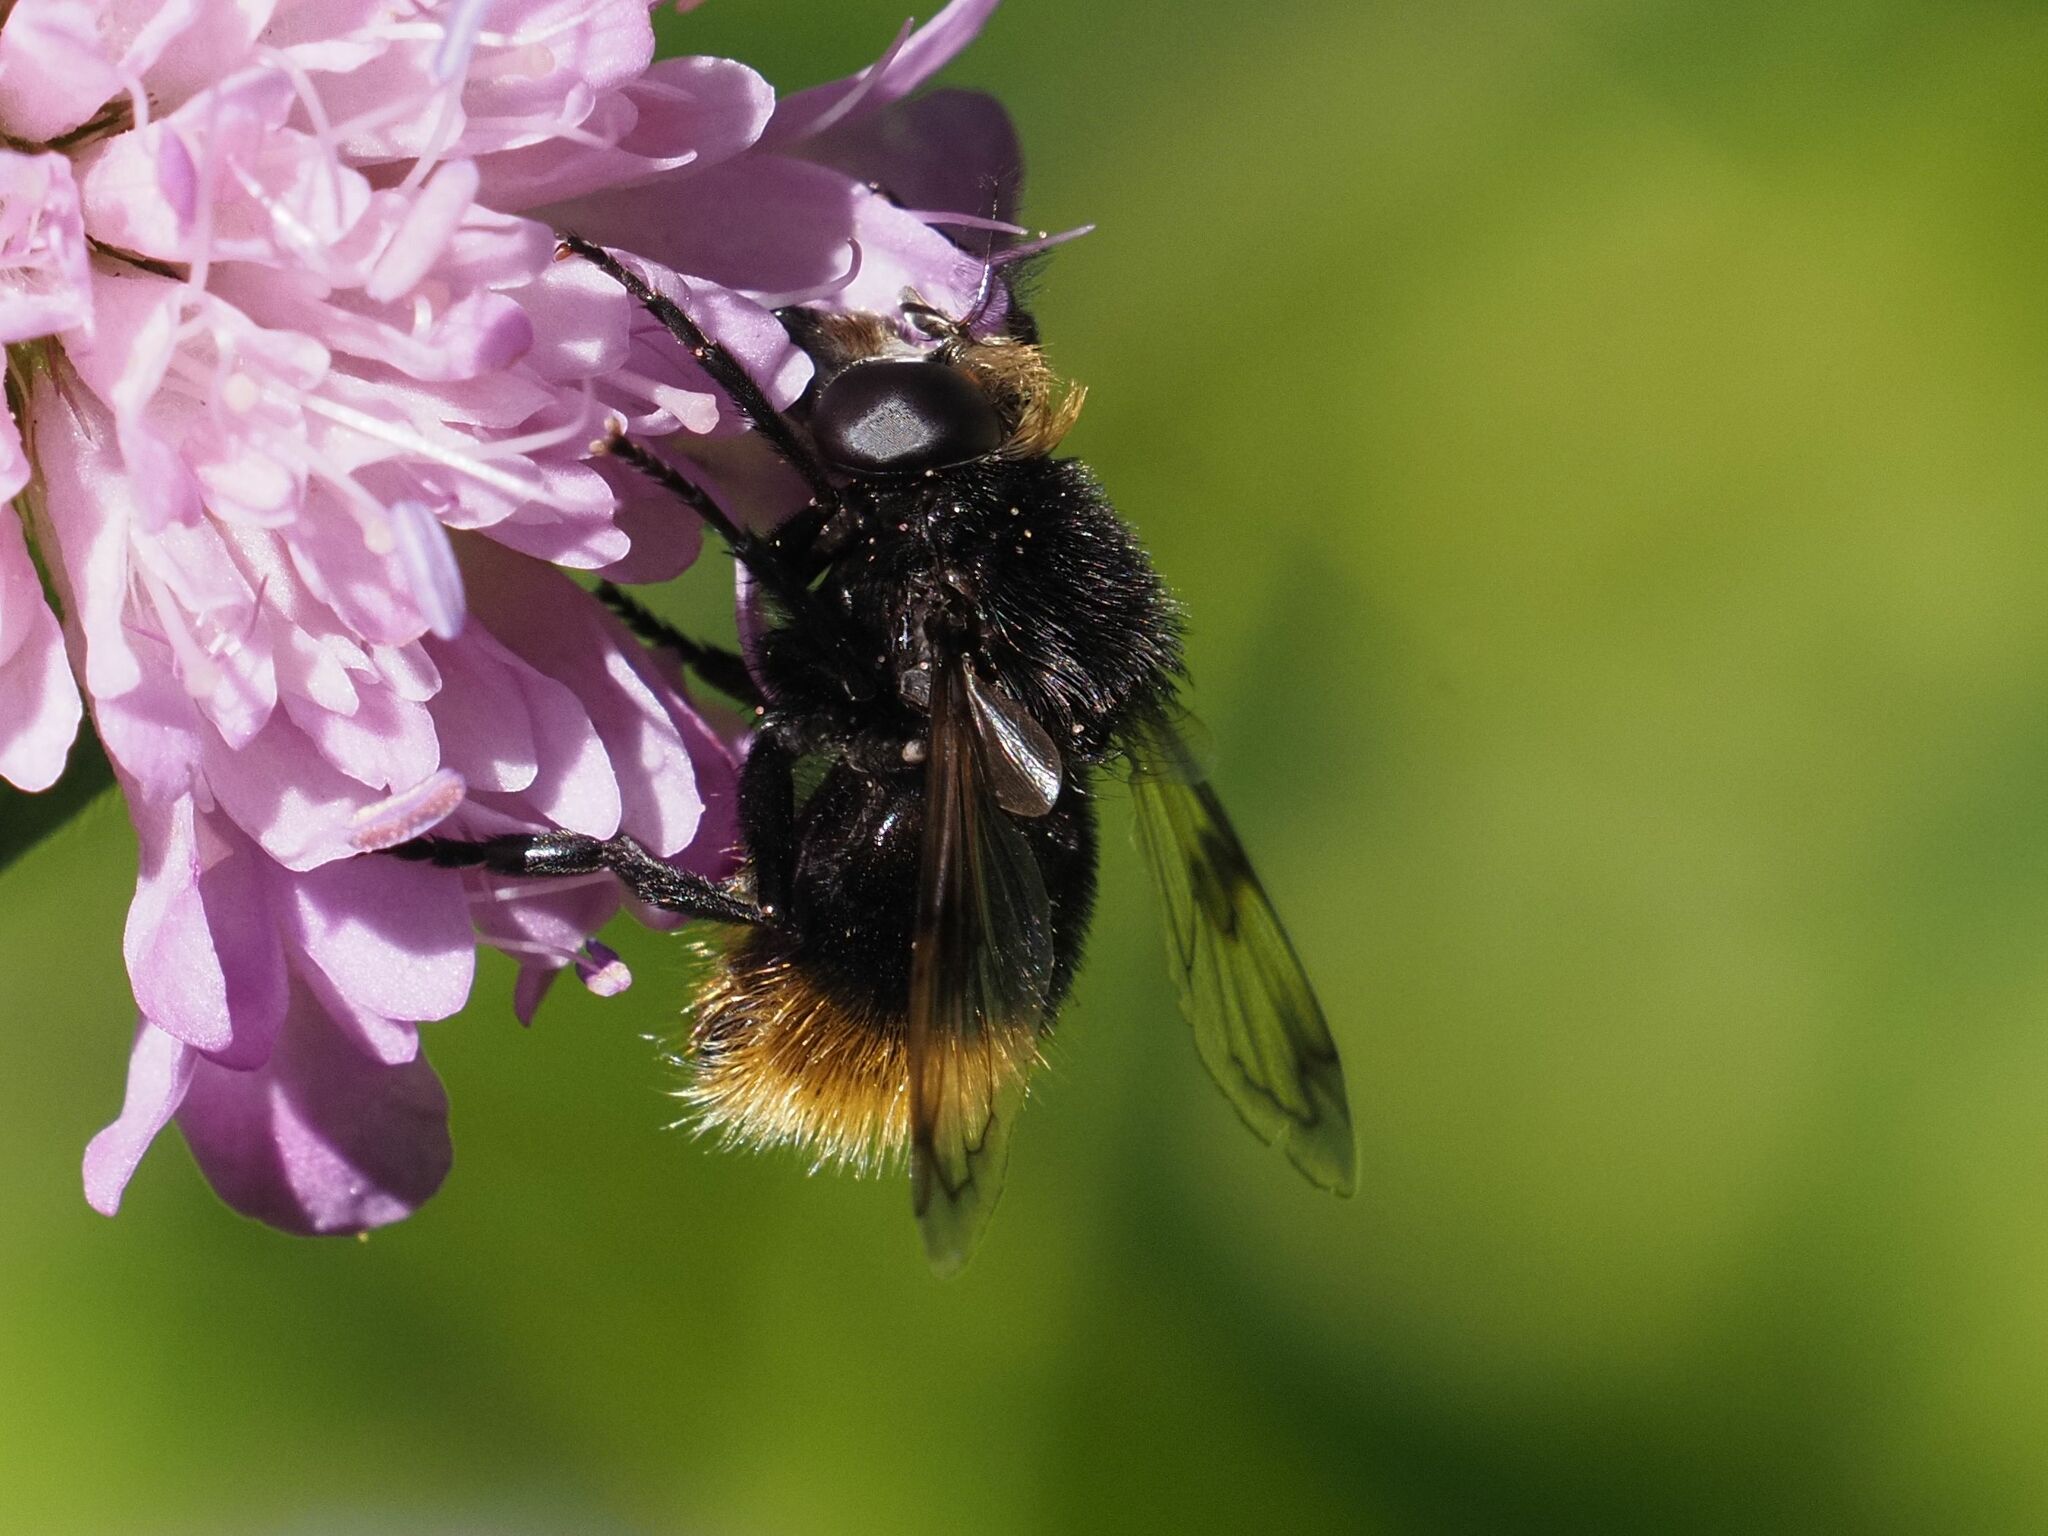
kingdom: Animalia
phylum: Arthropoda
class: Insecta
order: Diptera
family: Syrphidae
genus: Volucella
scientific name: Volucella bombylans
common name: Bumble bee hover fly
